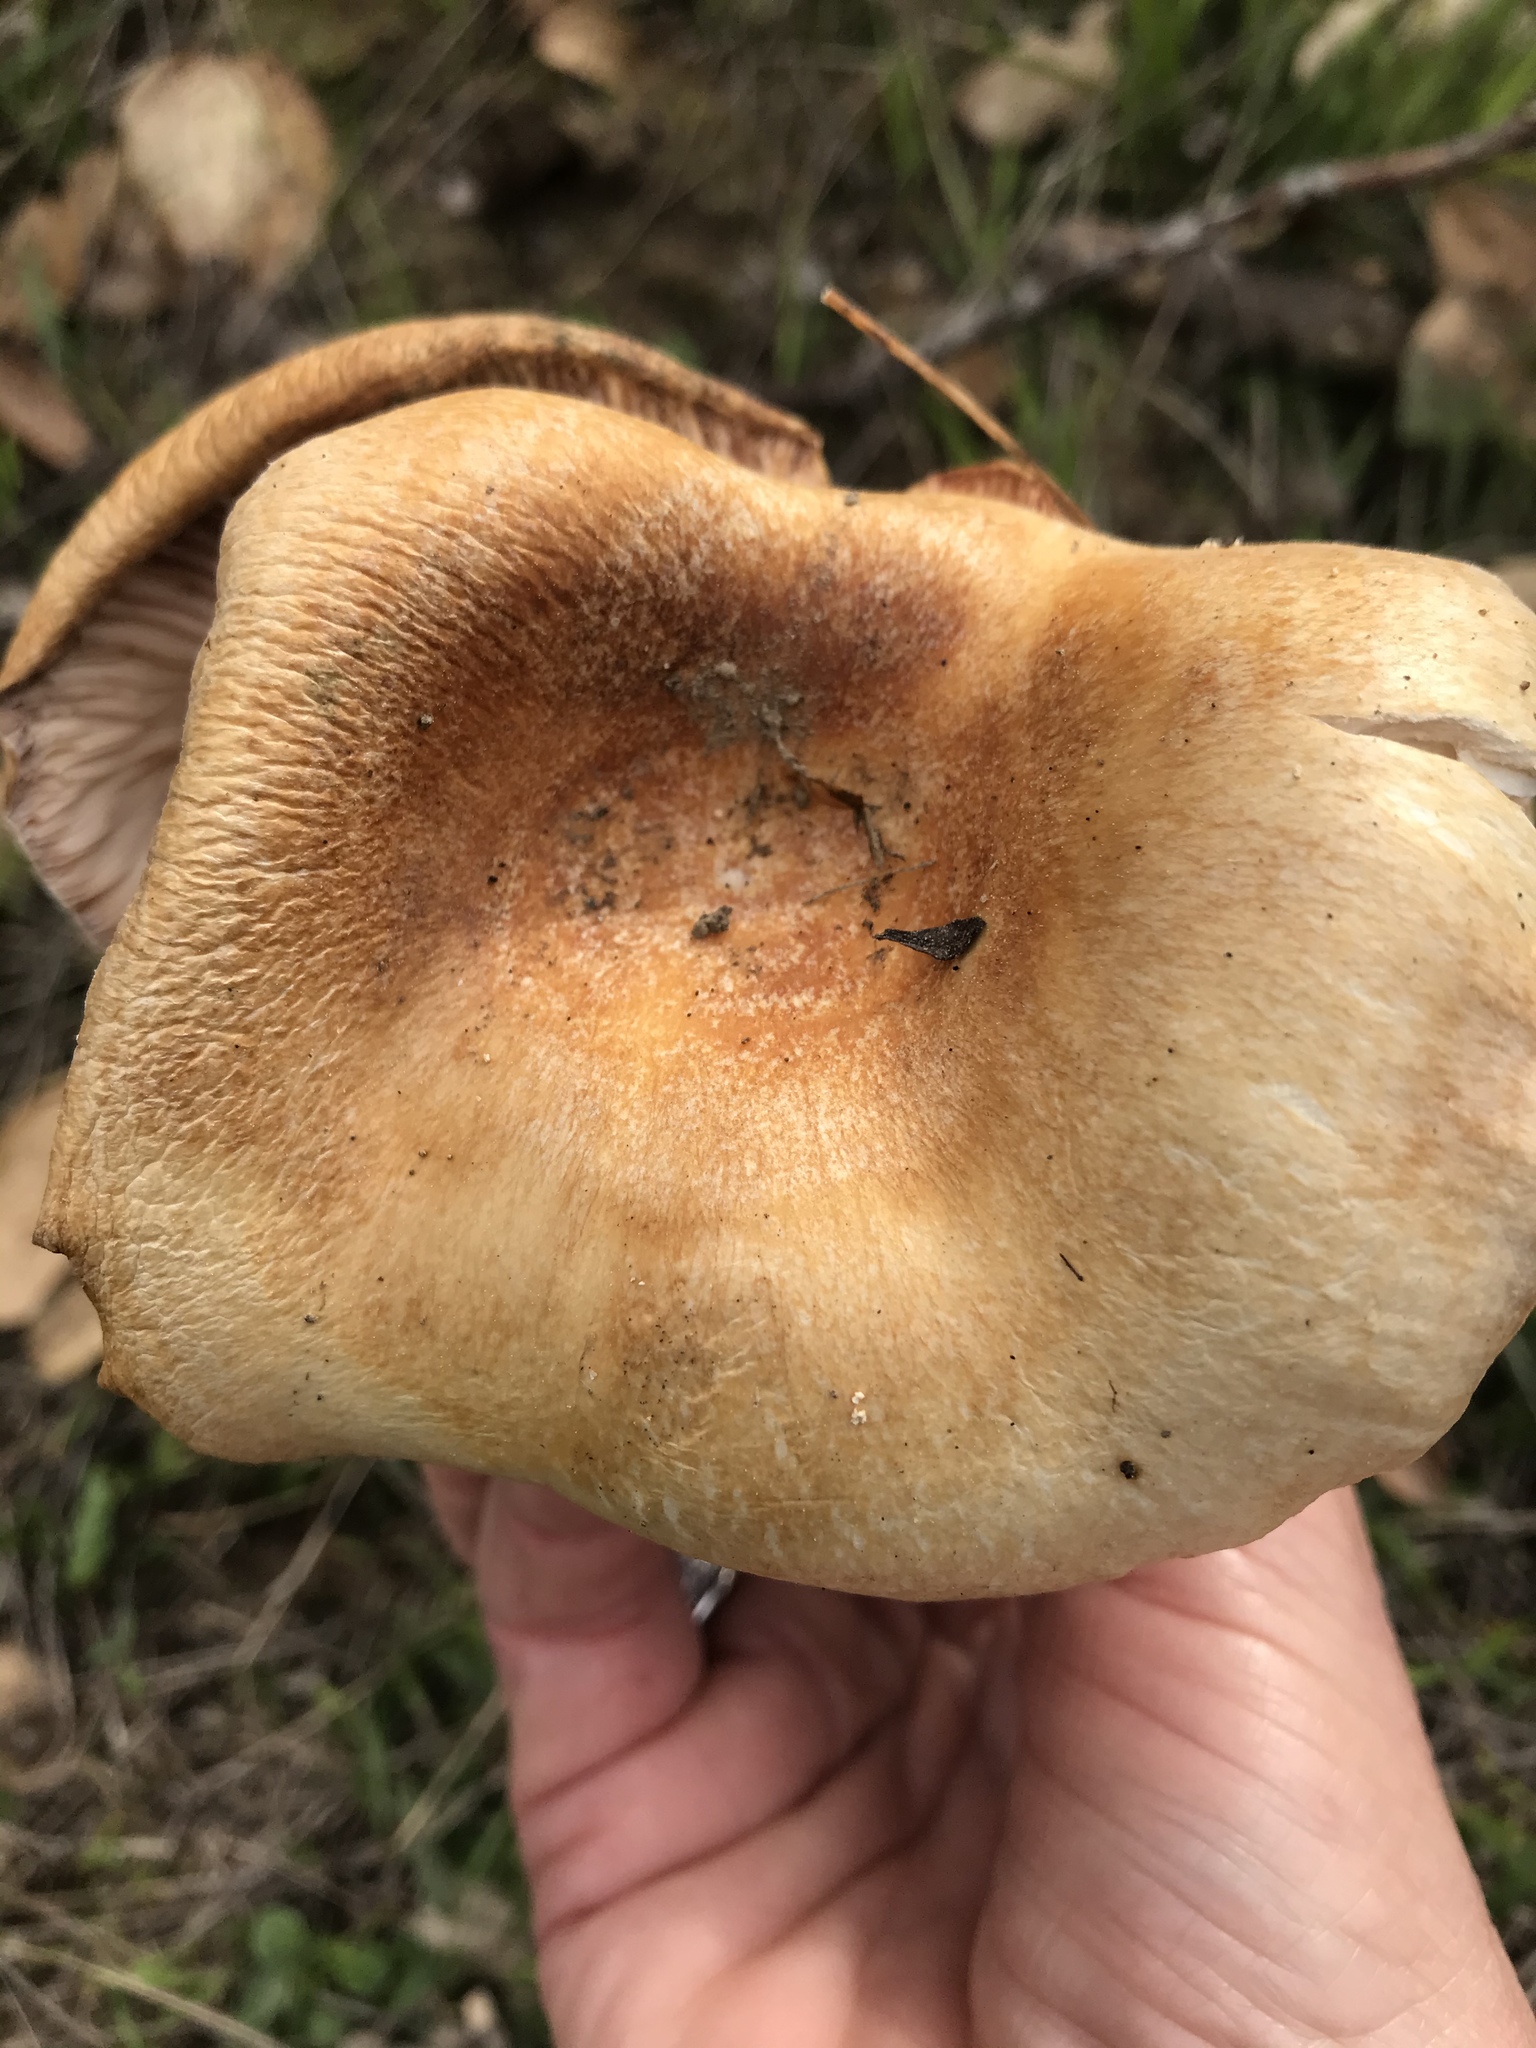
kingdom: Fungi
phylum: Basidiomycota
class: Agaricomycetes
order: Russulales
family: Russulaceae
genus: Lactarius
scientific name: Lactarius alnicola
